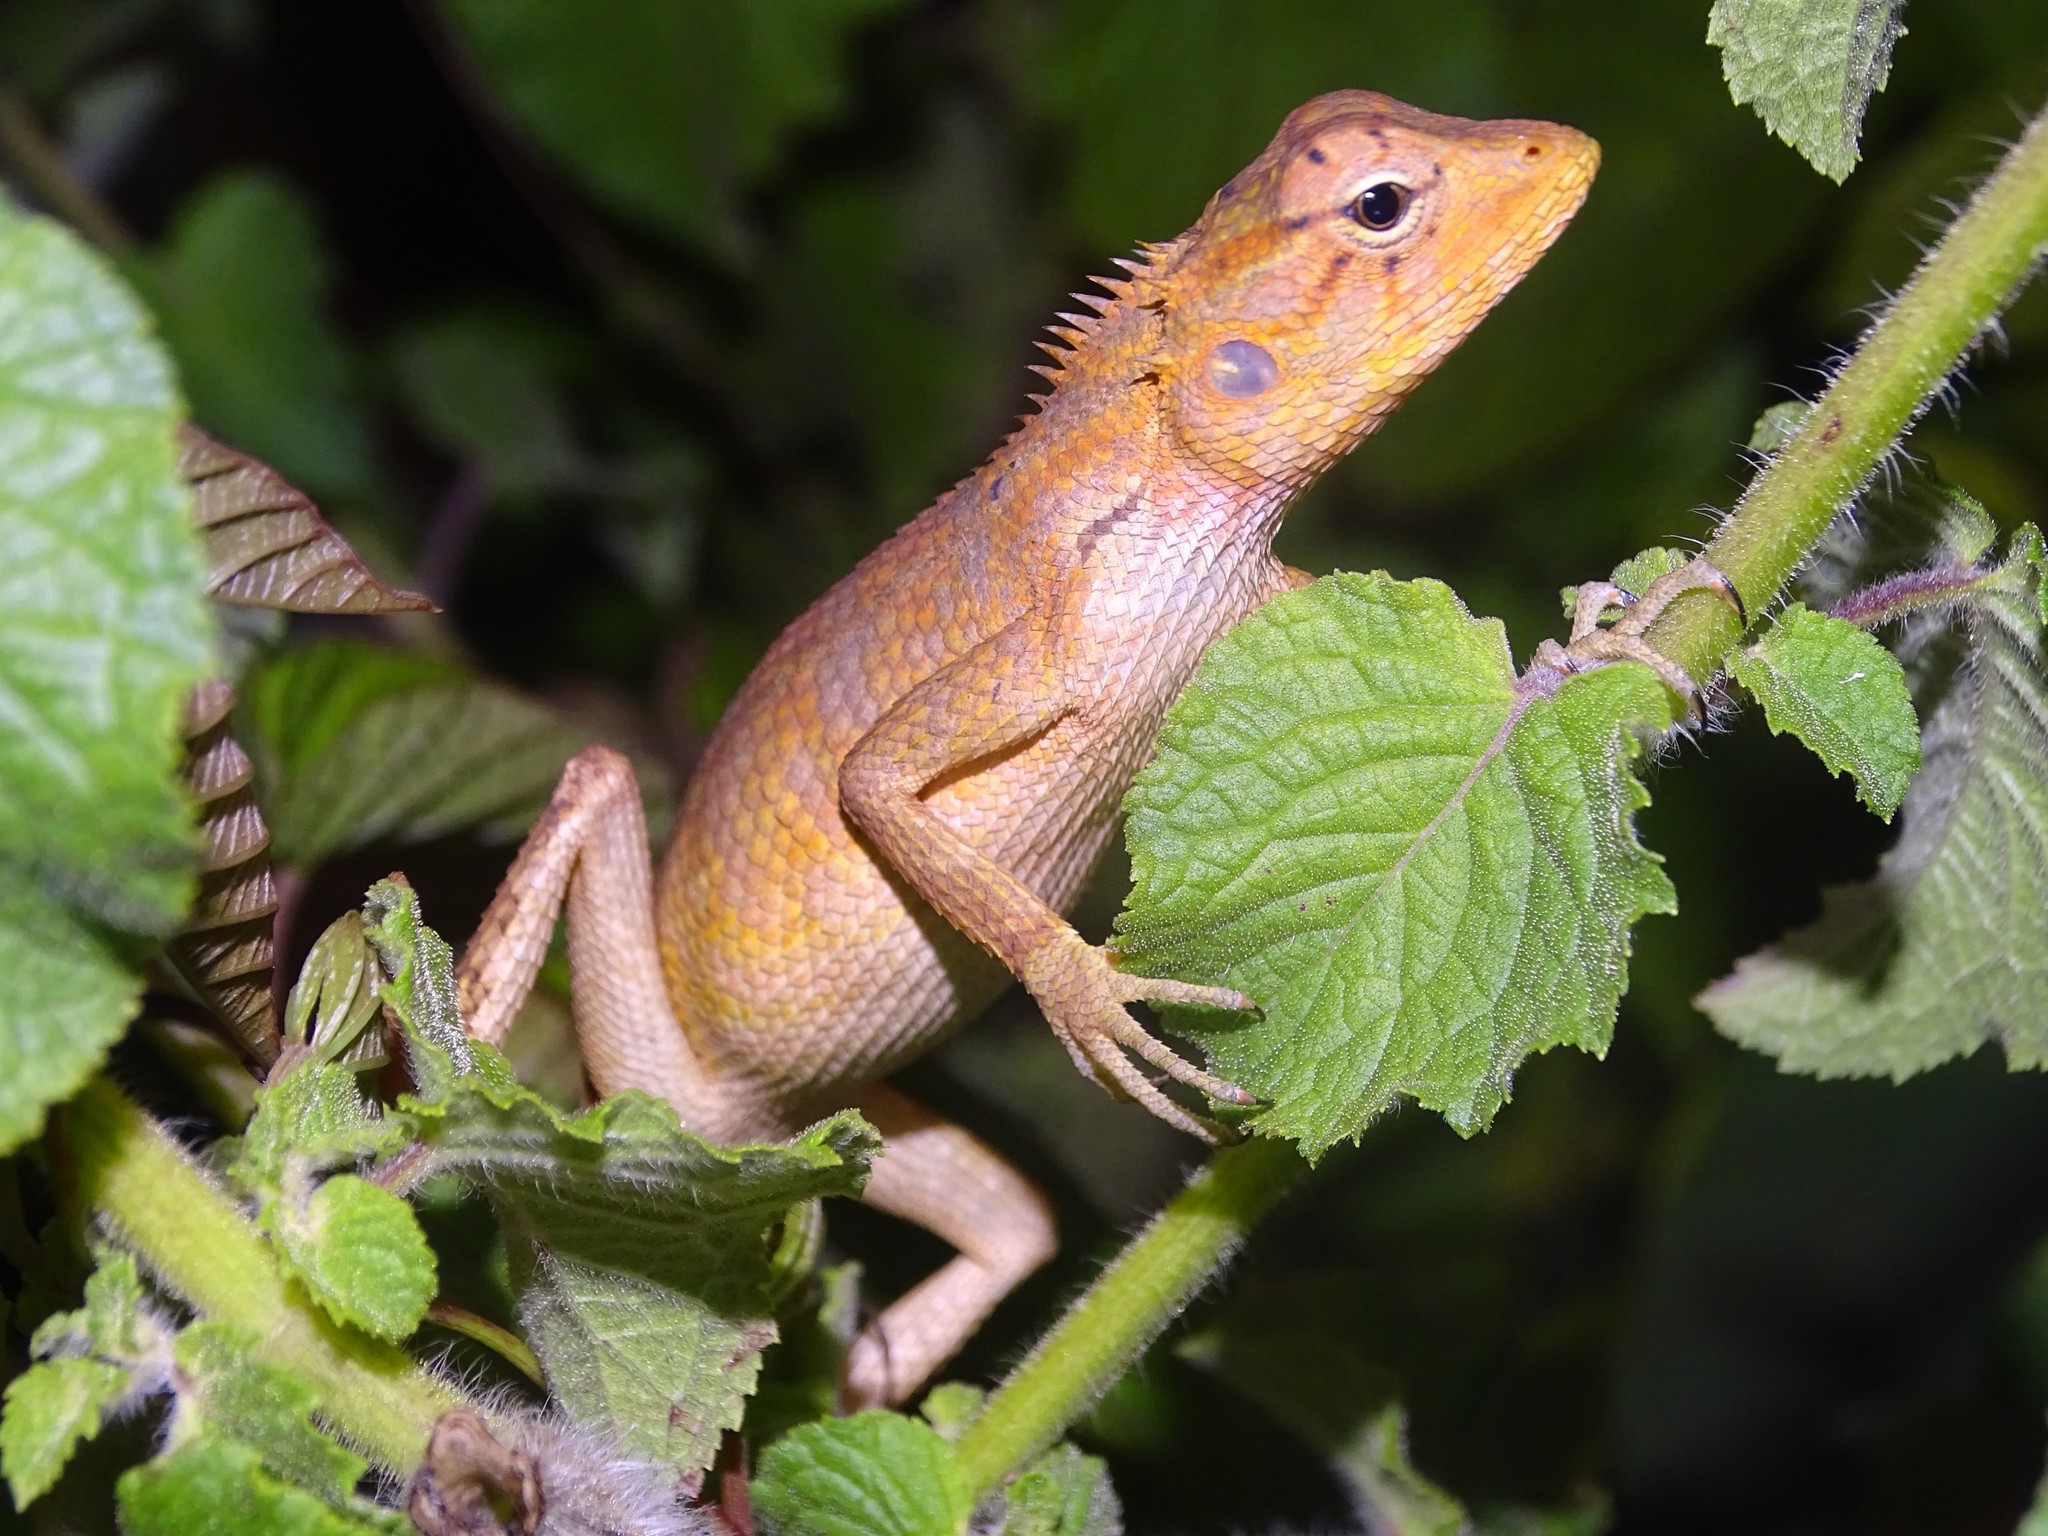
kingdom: Animalia
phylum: Chordata
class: Squamata
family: Agamidae
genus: Calotes
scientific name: Calotes versicolor
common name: Oriental garden lizard
